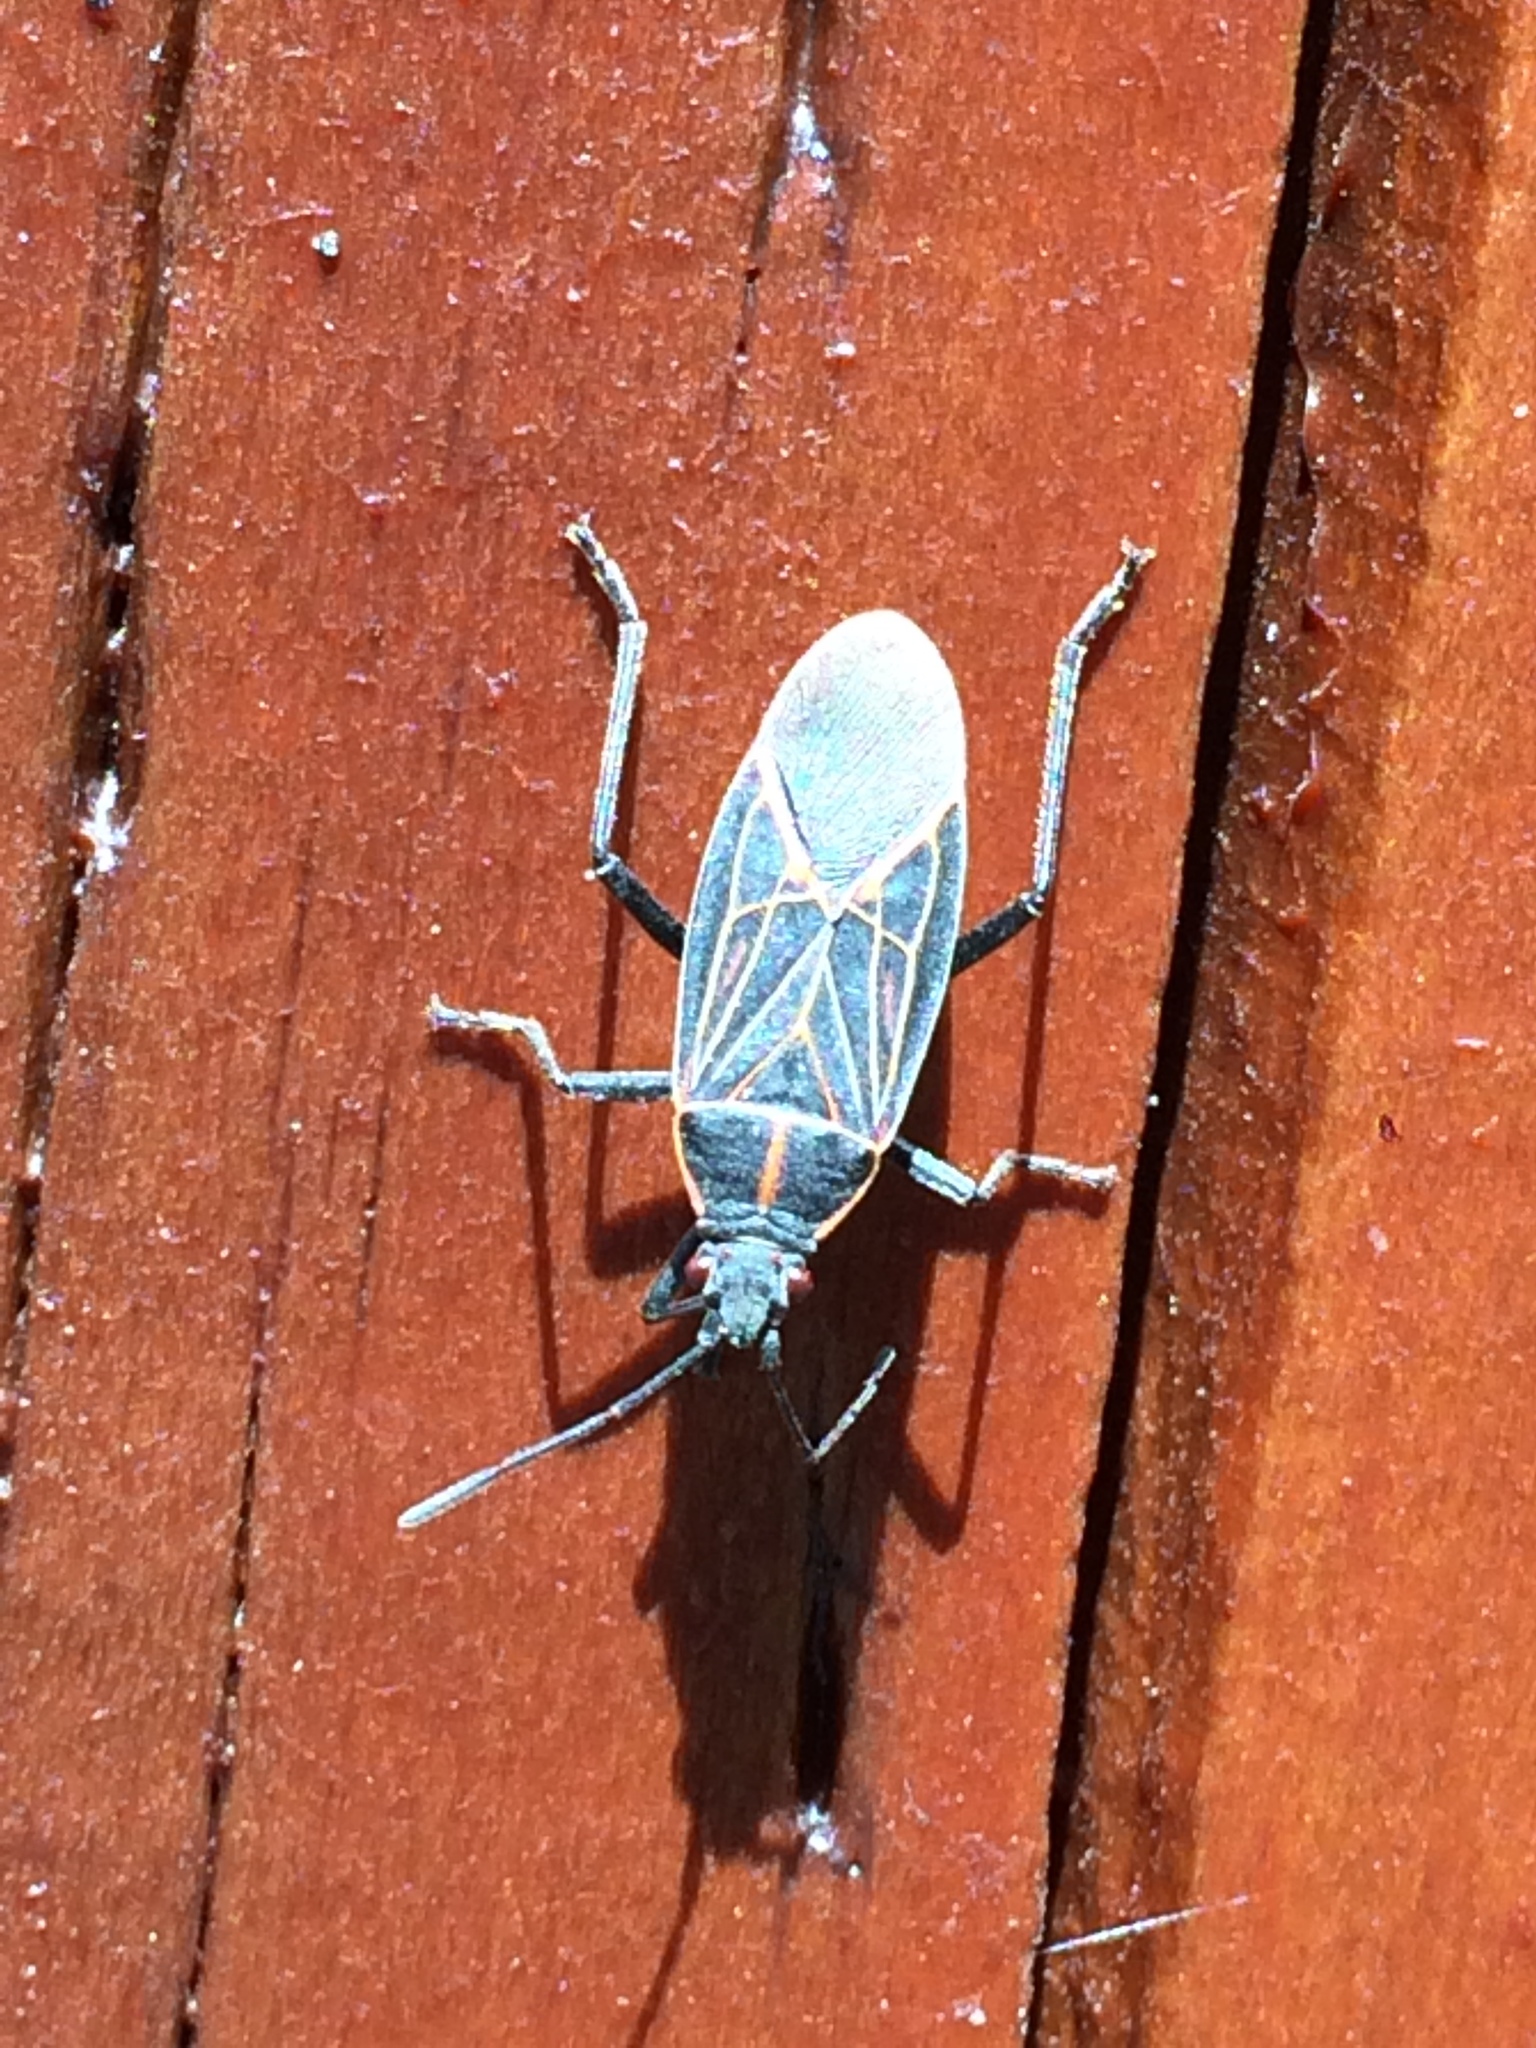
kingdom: Animalia
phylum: Arthropoda
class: Insecta
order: Hemiptera
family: Rhopalidae
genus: Boisea
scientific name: Boisea rubrolineata
